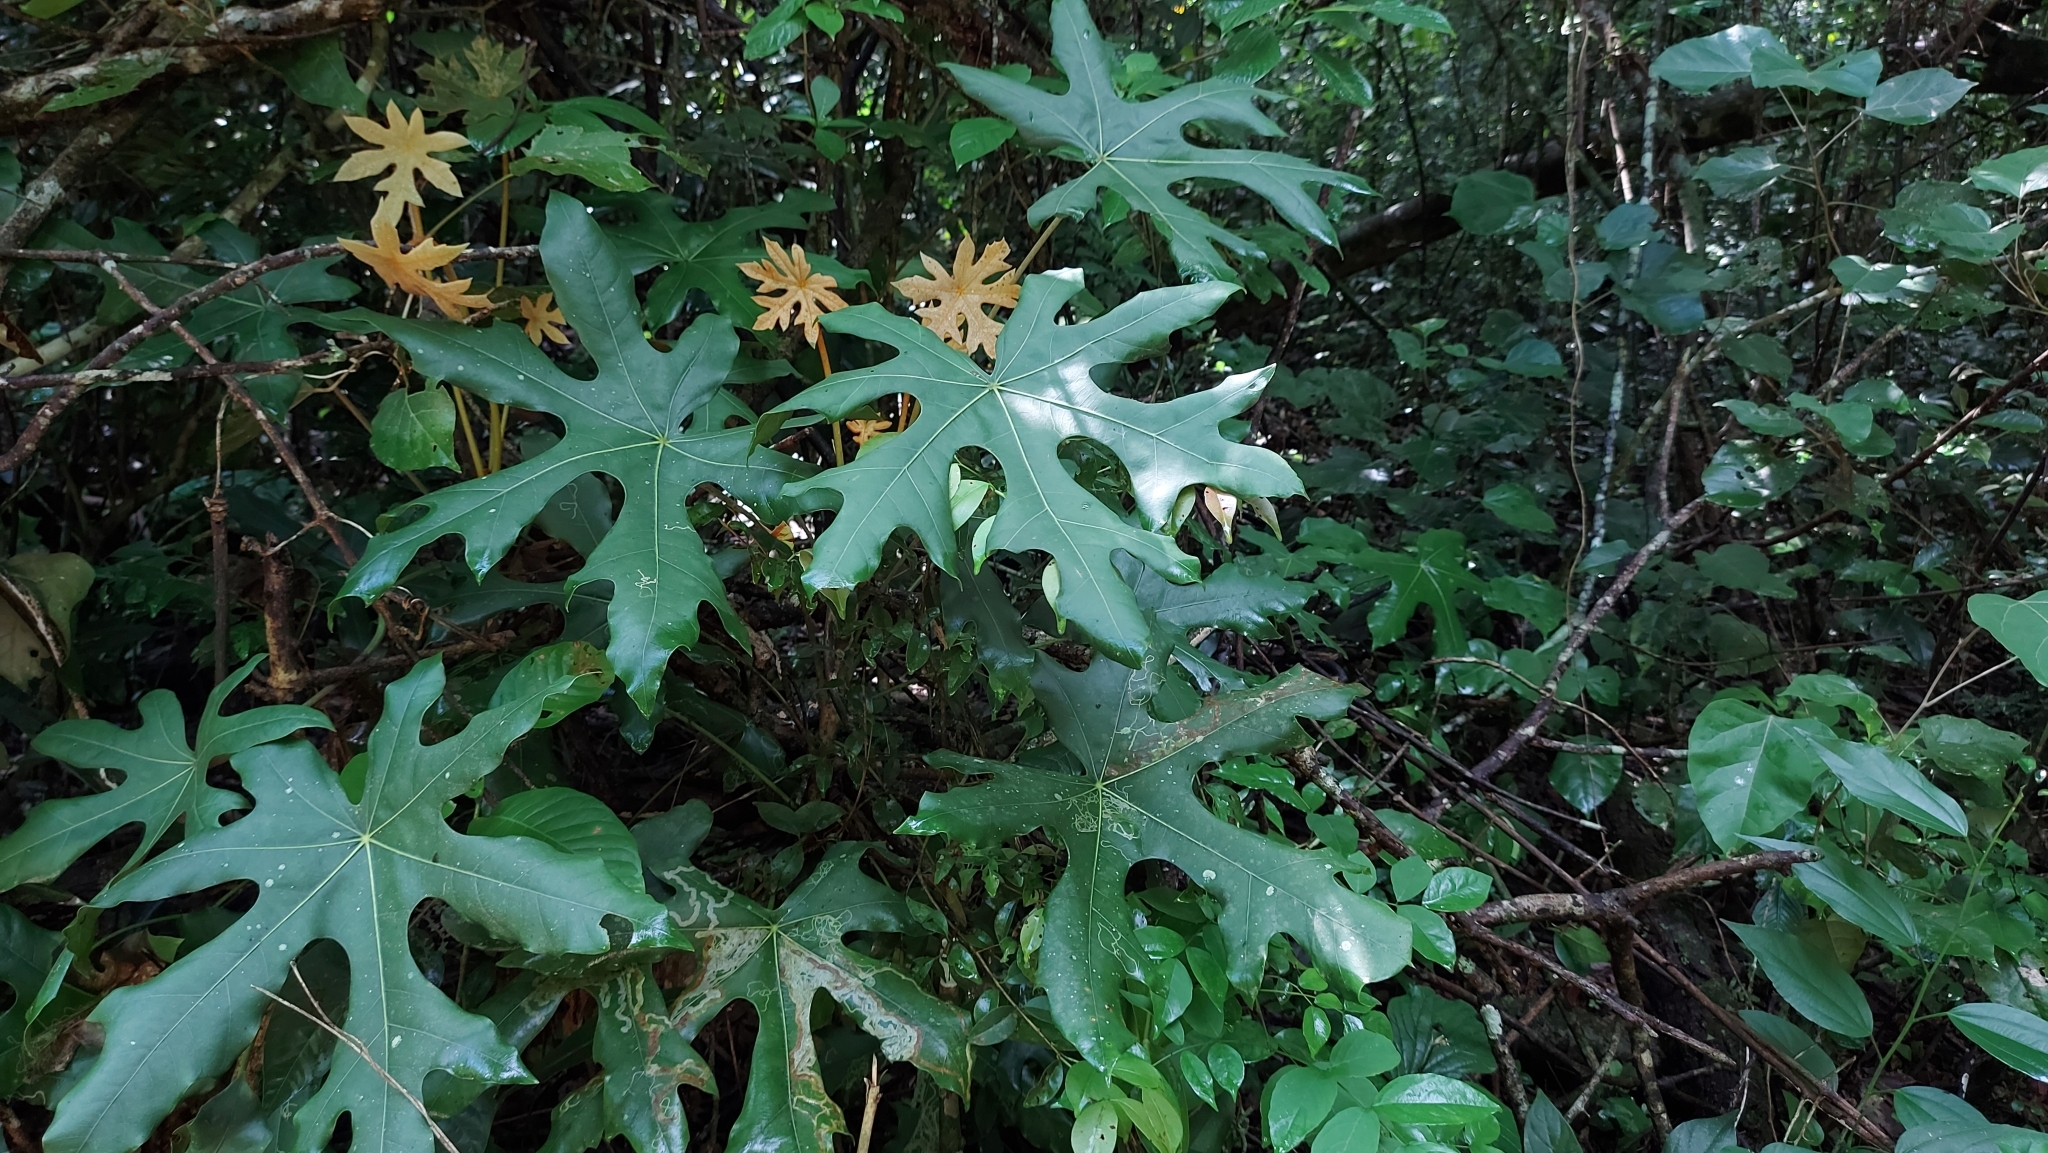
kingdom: Plantae
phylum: Tracheophyta
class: Magnoliopsida
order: Apiales
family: Araliaceae
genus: Oreopanax
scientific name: Oreopanax geminatus
